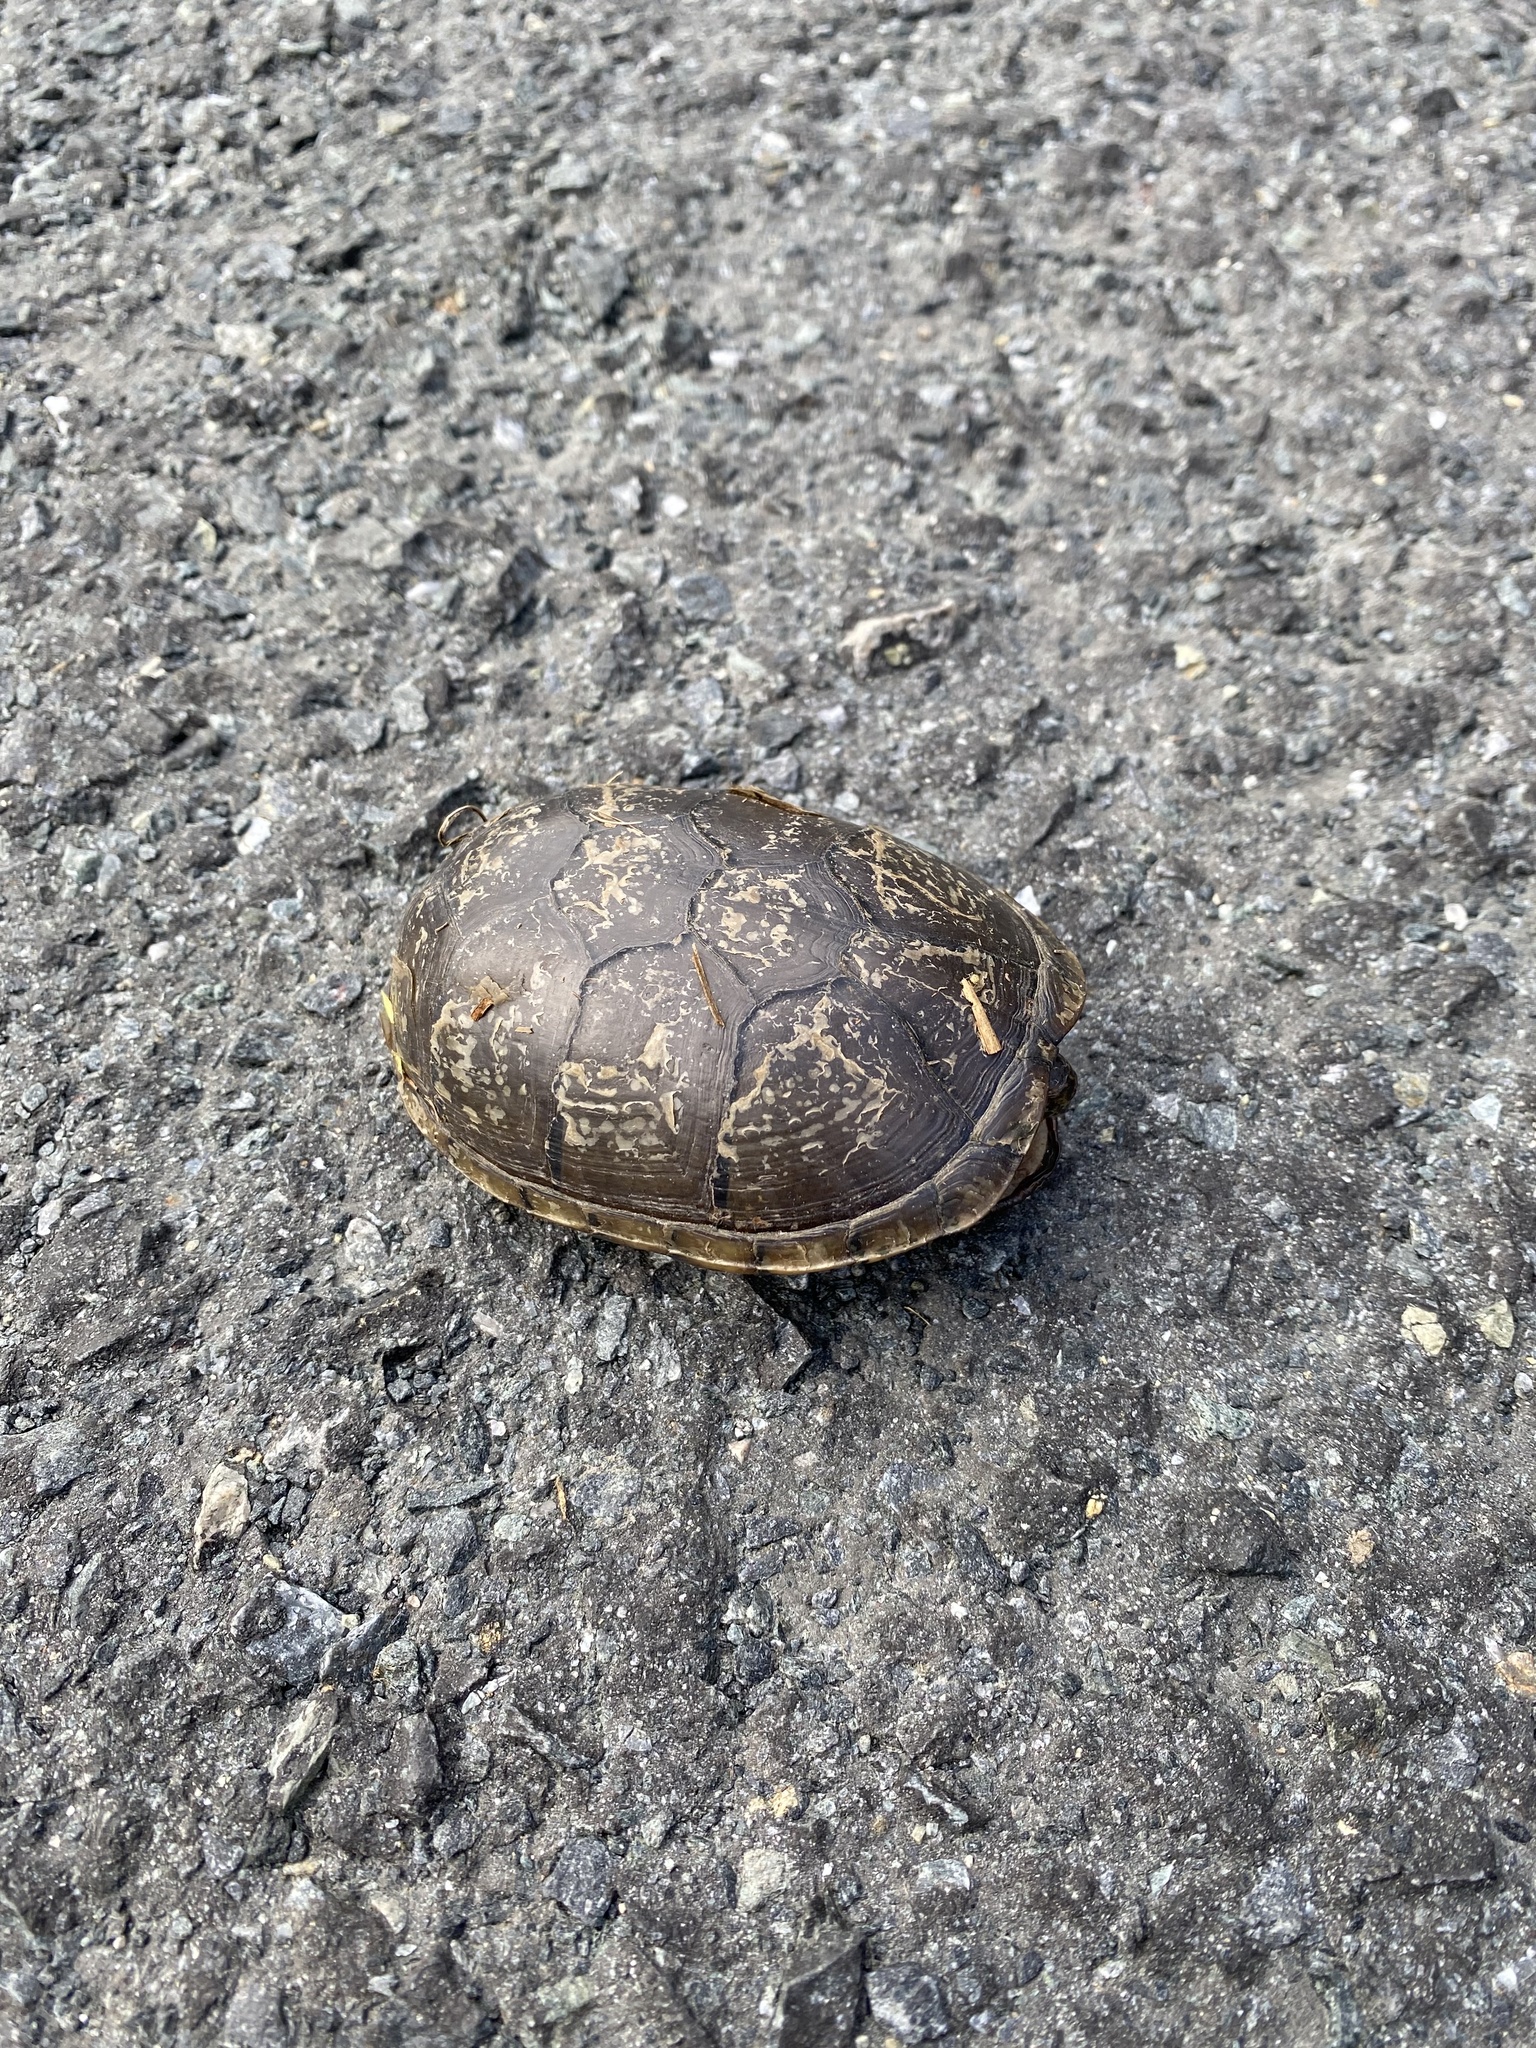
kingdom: Animalia
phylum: Chordata
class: Testudines
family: Kinosternidae
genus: Kinosternon
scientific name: Kinosternon subrubrum
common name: Eastern mud turtle
